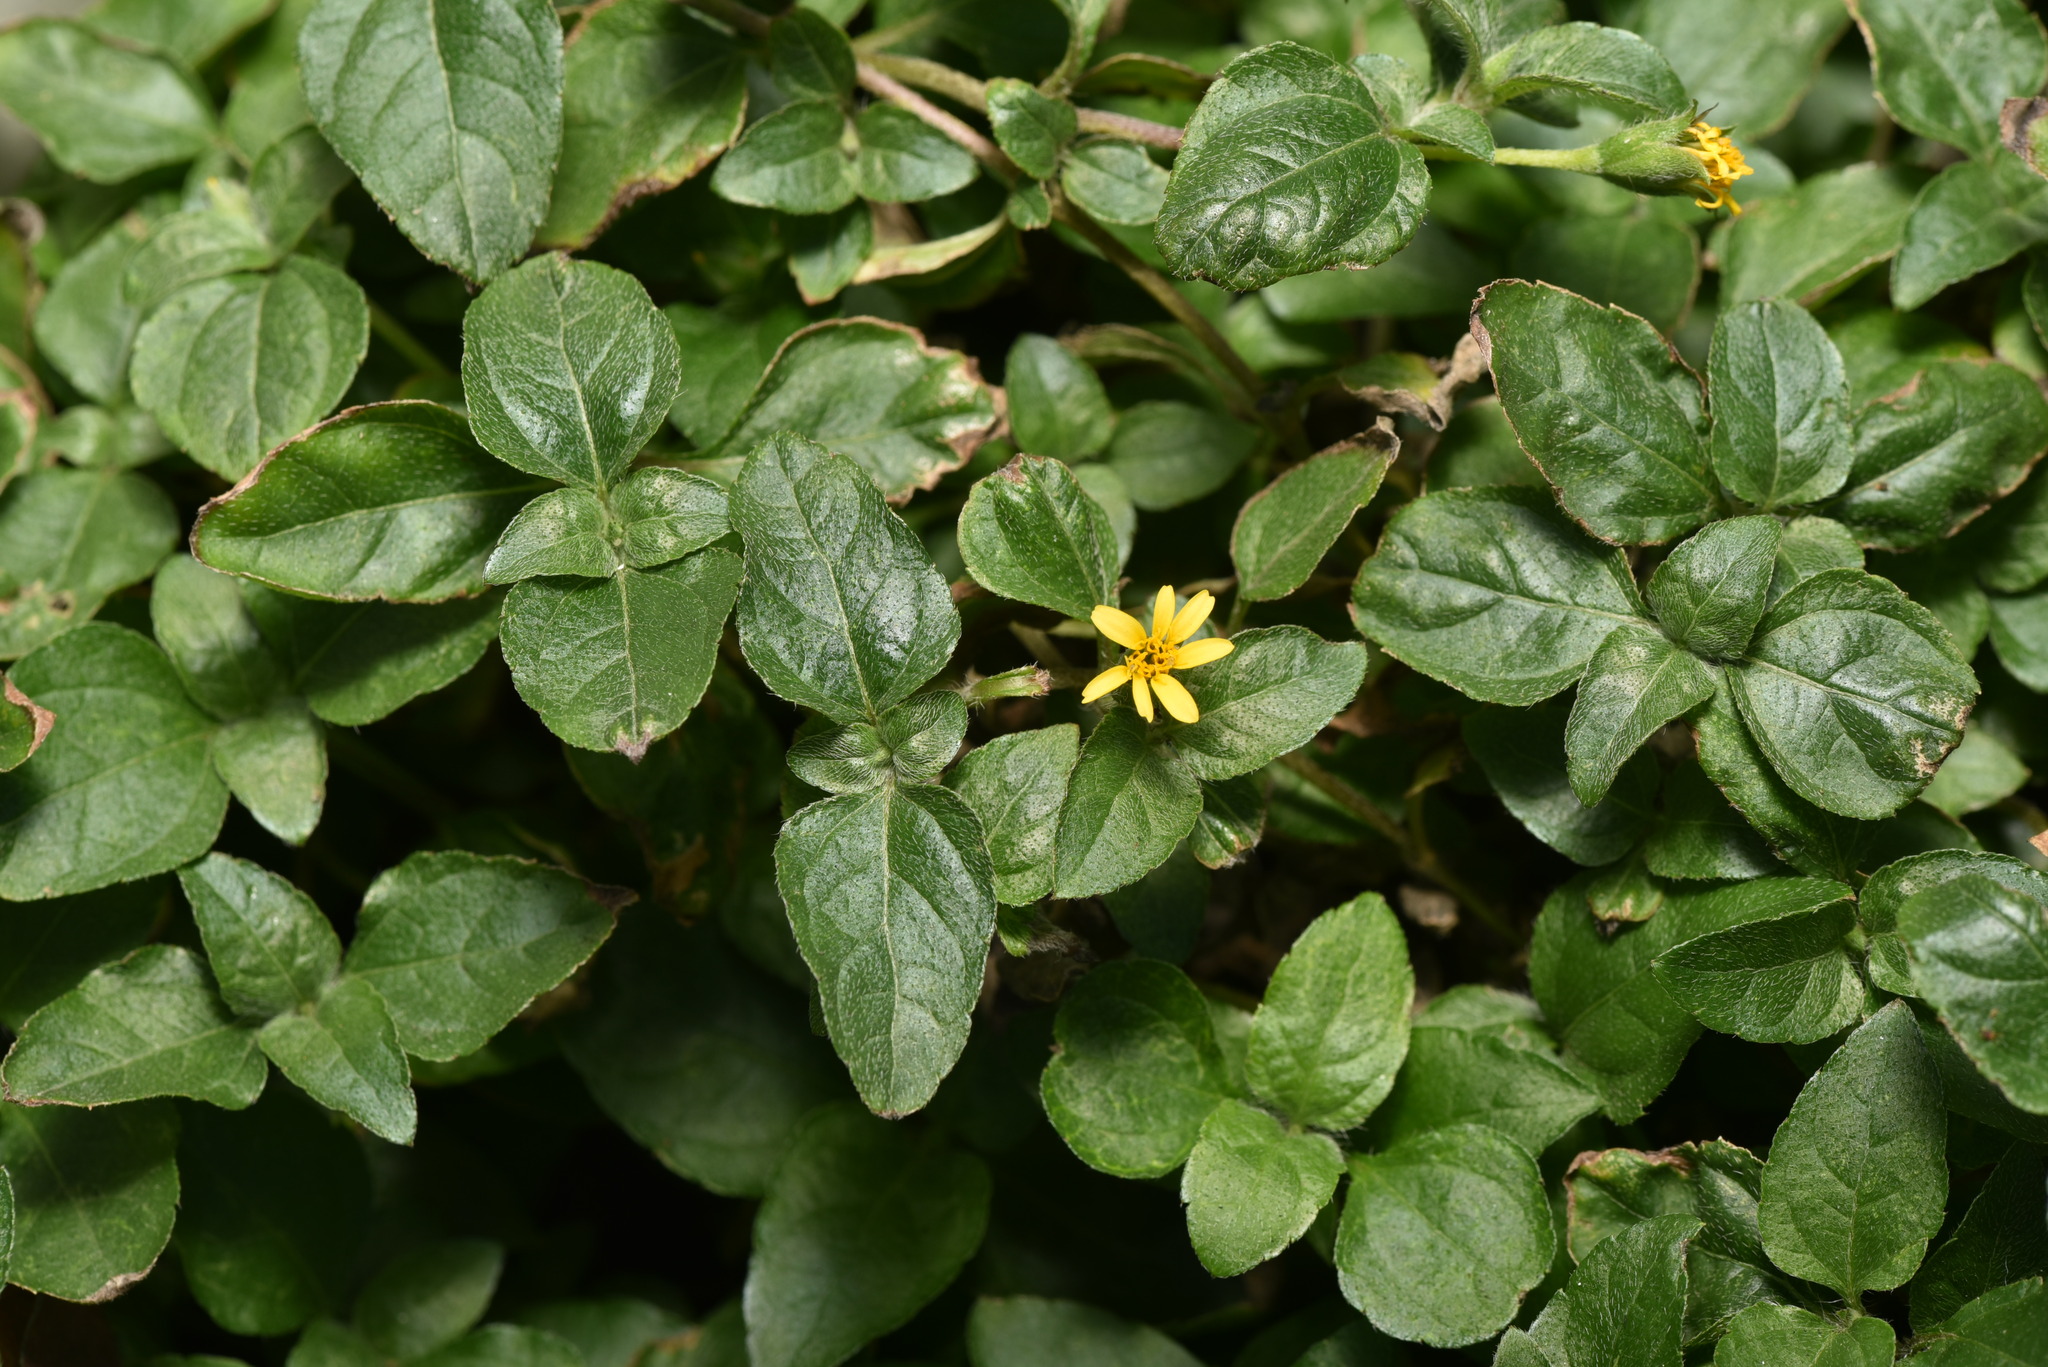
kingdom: Plantae
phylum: Tracheophyta
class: Magnoliopsida
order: Asterales
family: Asteraceae
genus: Calyptocarpus
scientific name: Calyptocarpus vialis
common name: Straggler daisy
